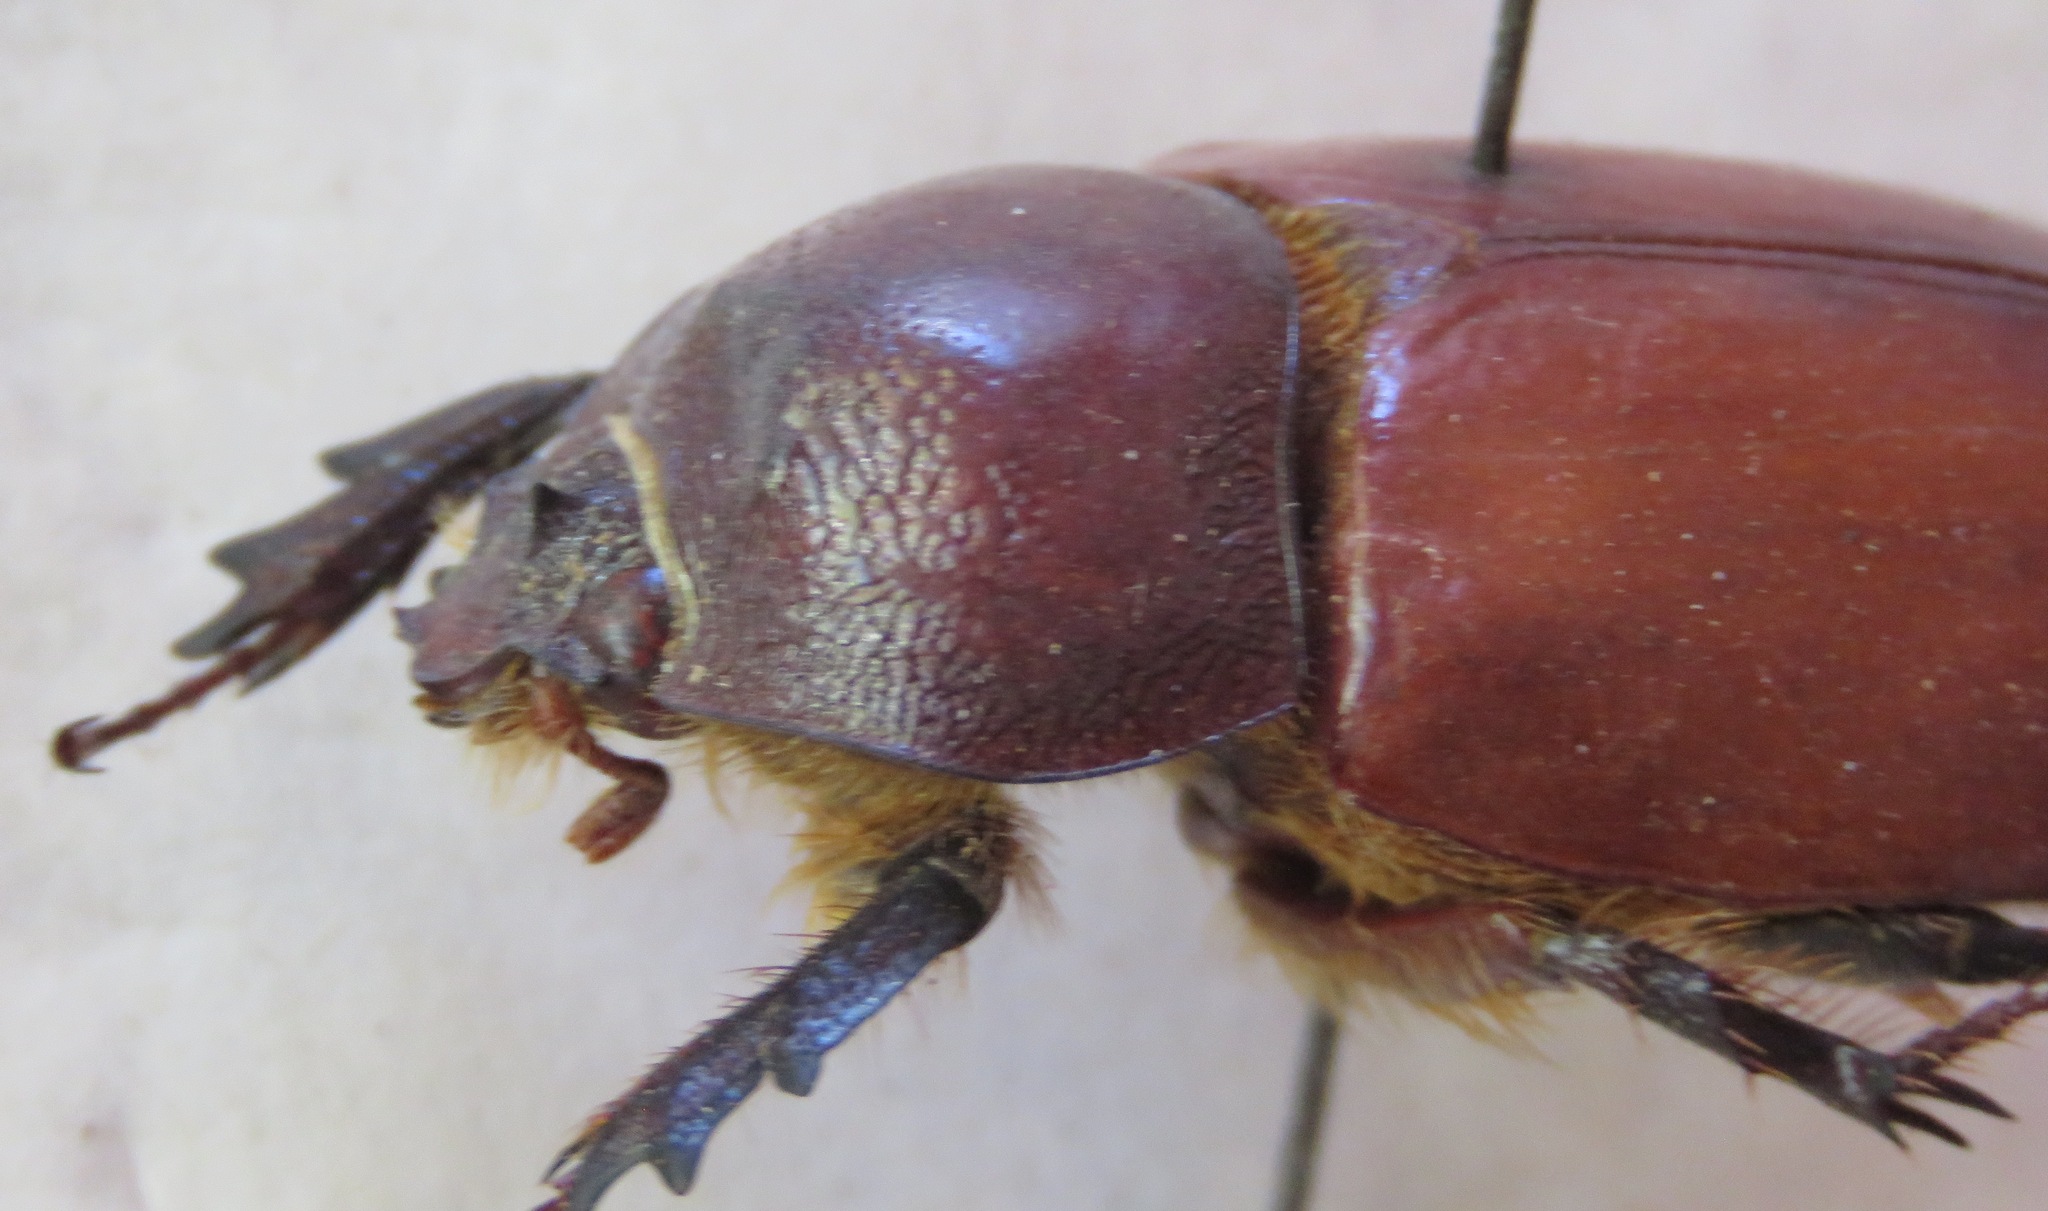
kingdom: Animalia
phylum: Arthropoda
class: Insecta
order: Coleoptera
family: Scarabaeidae
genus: Dichodontus
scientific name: Dichodontus croesus
